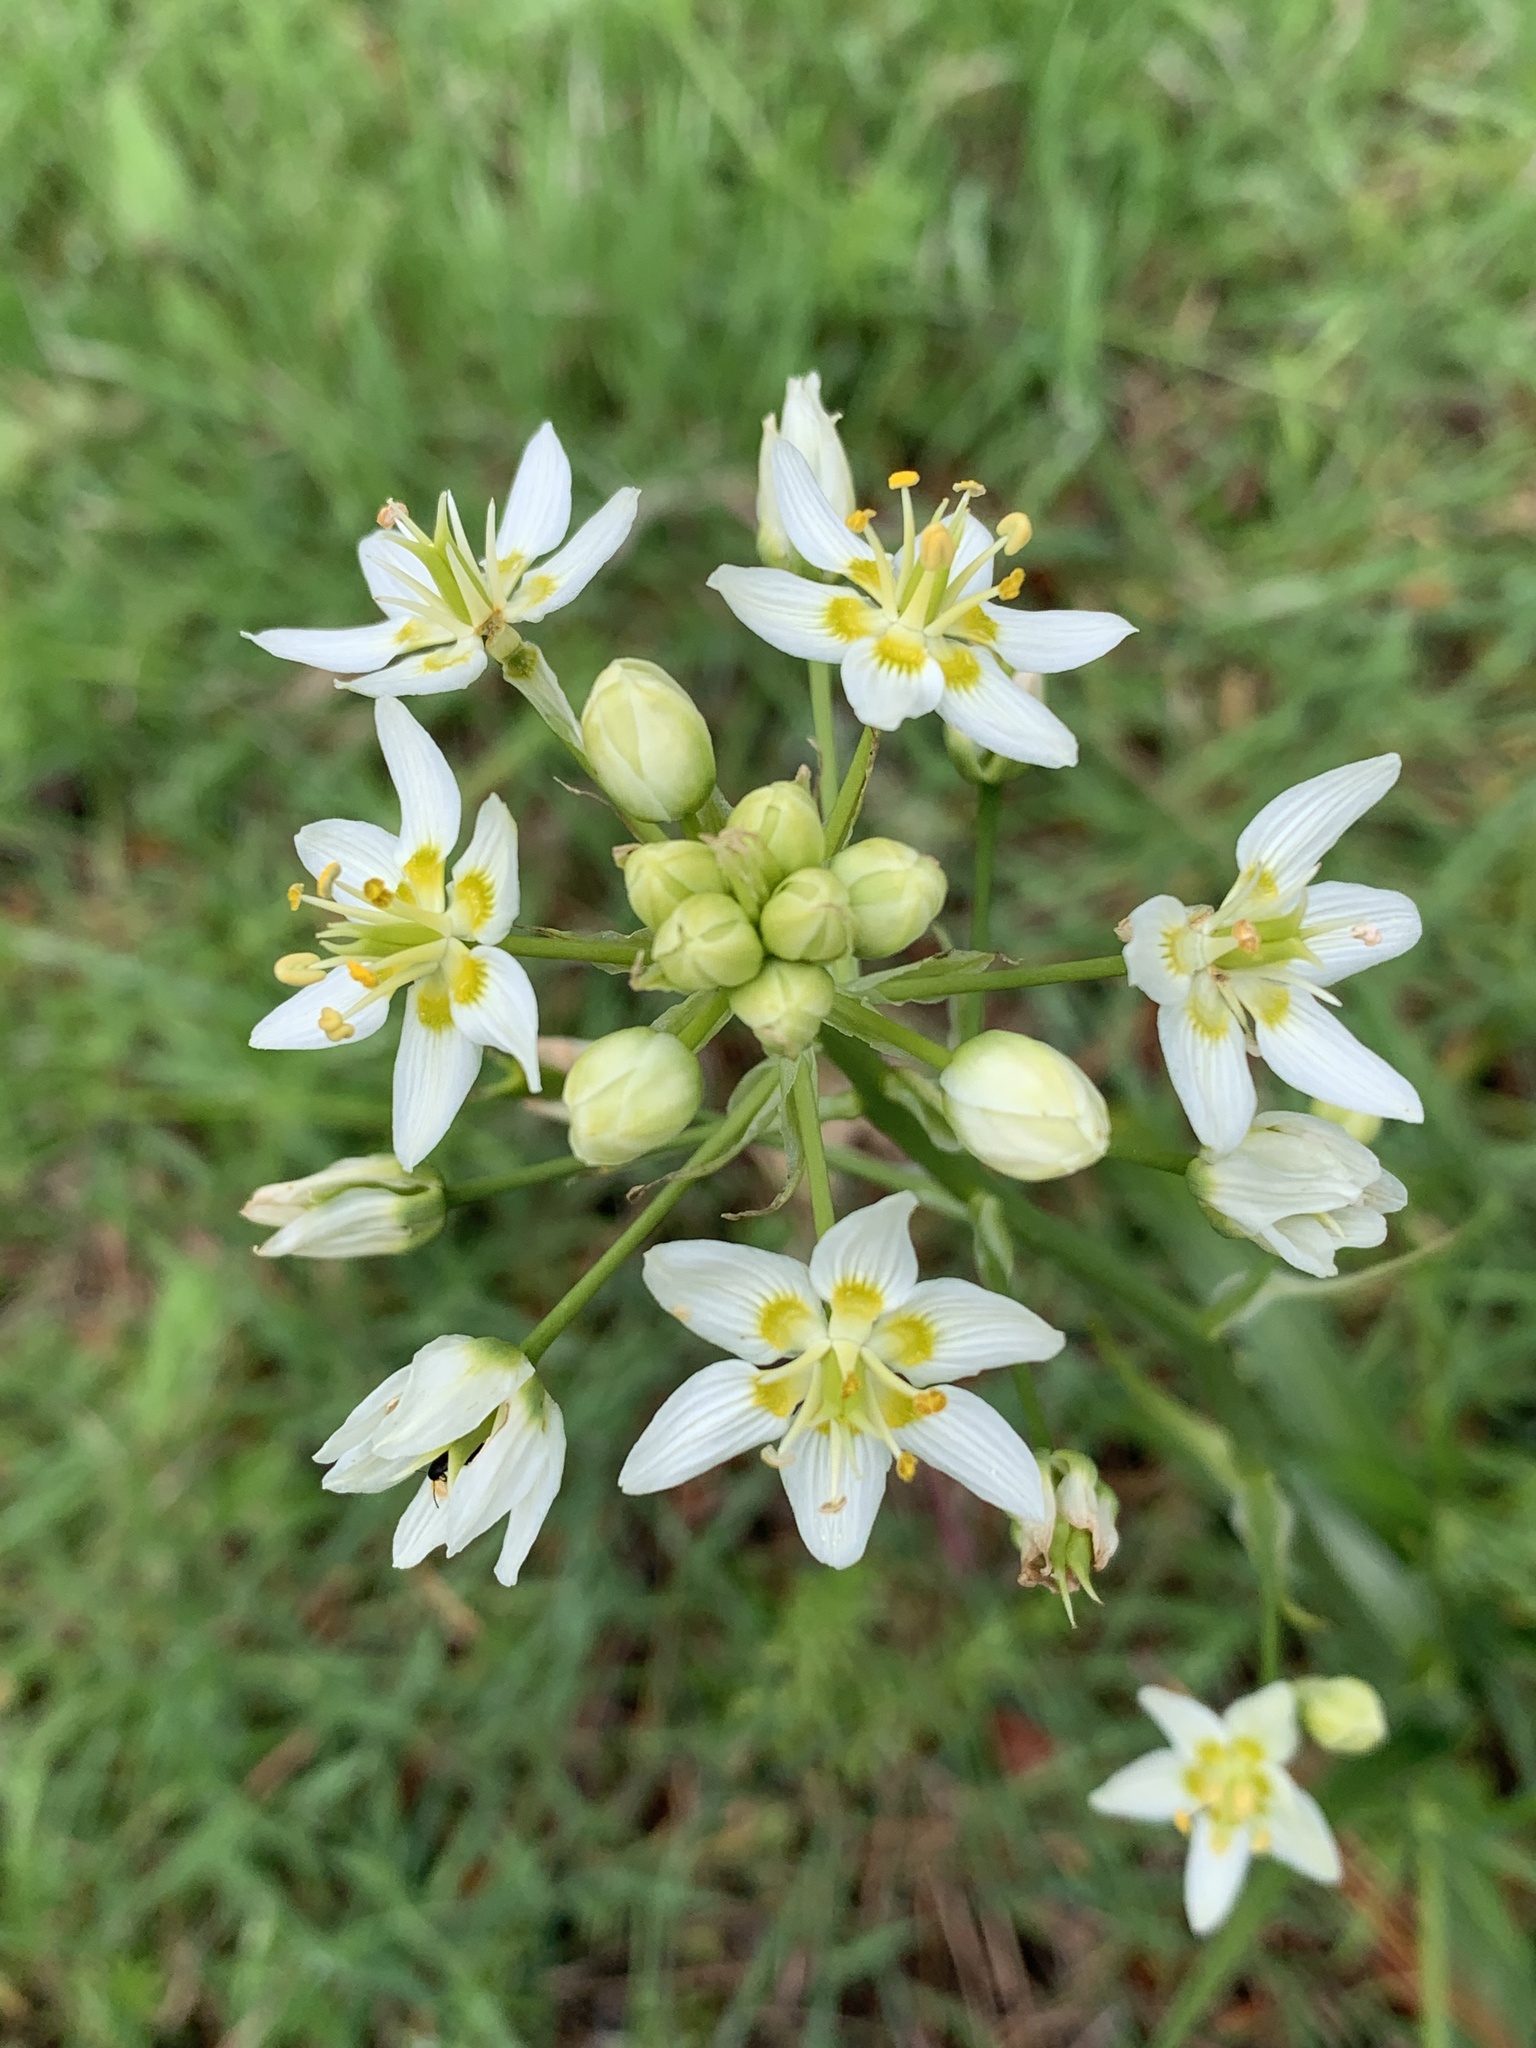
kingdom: Plantae
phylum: Tracheophyta
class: Liliopsida
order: Liliales
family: Melanthiaceae
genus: Toxicoscordion
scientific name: Toxicoscordion fremontii
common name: Fremont's death camas
